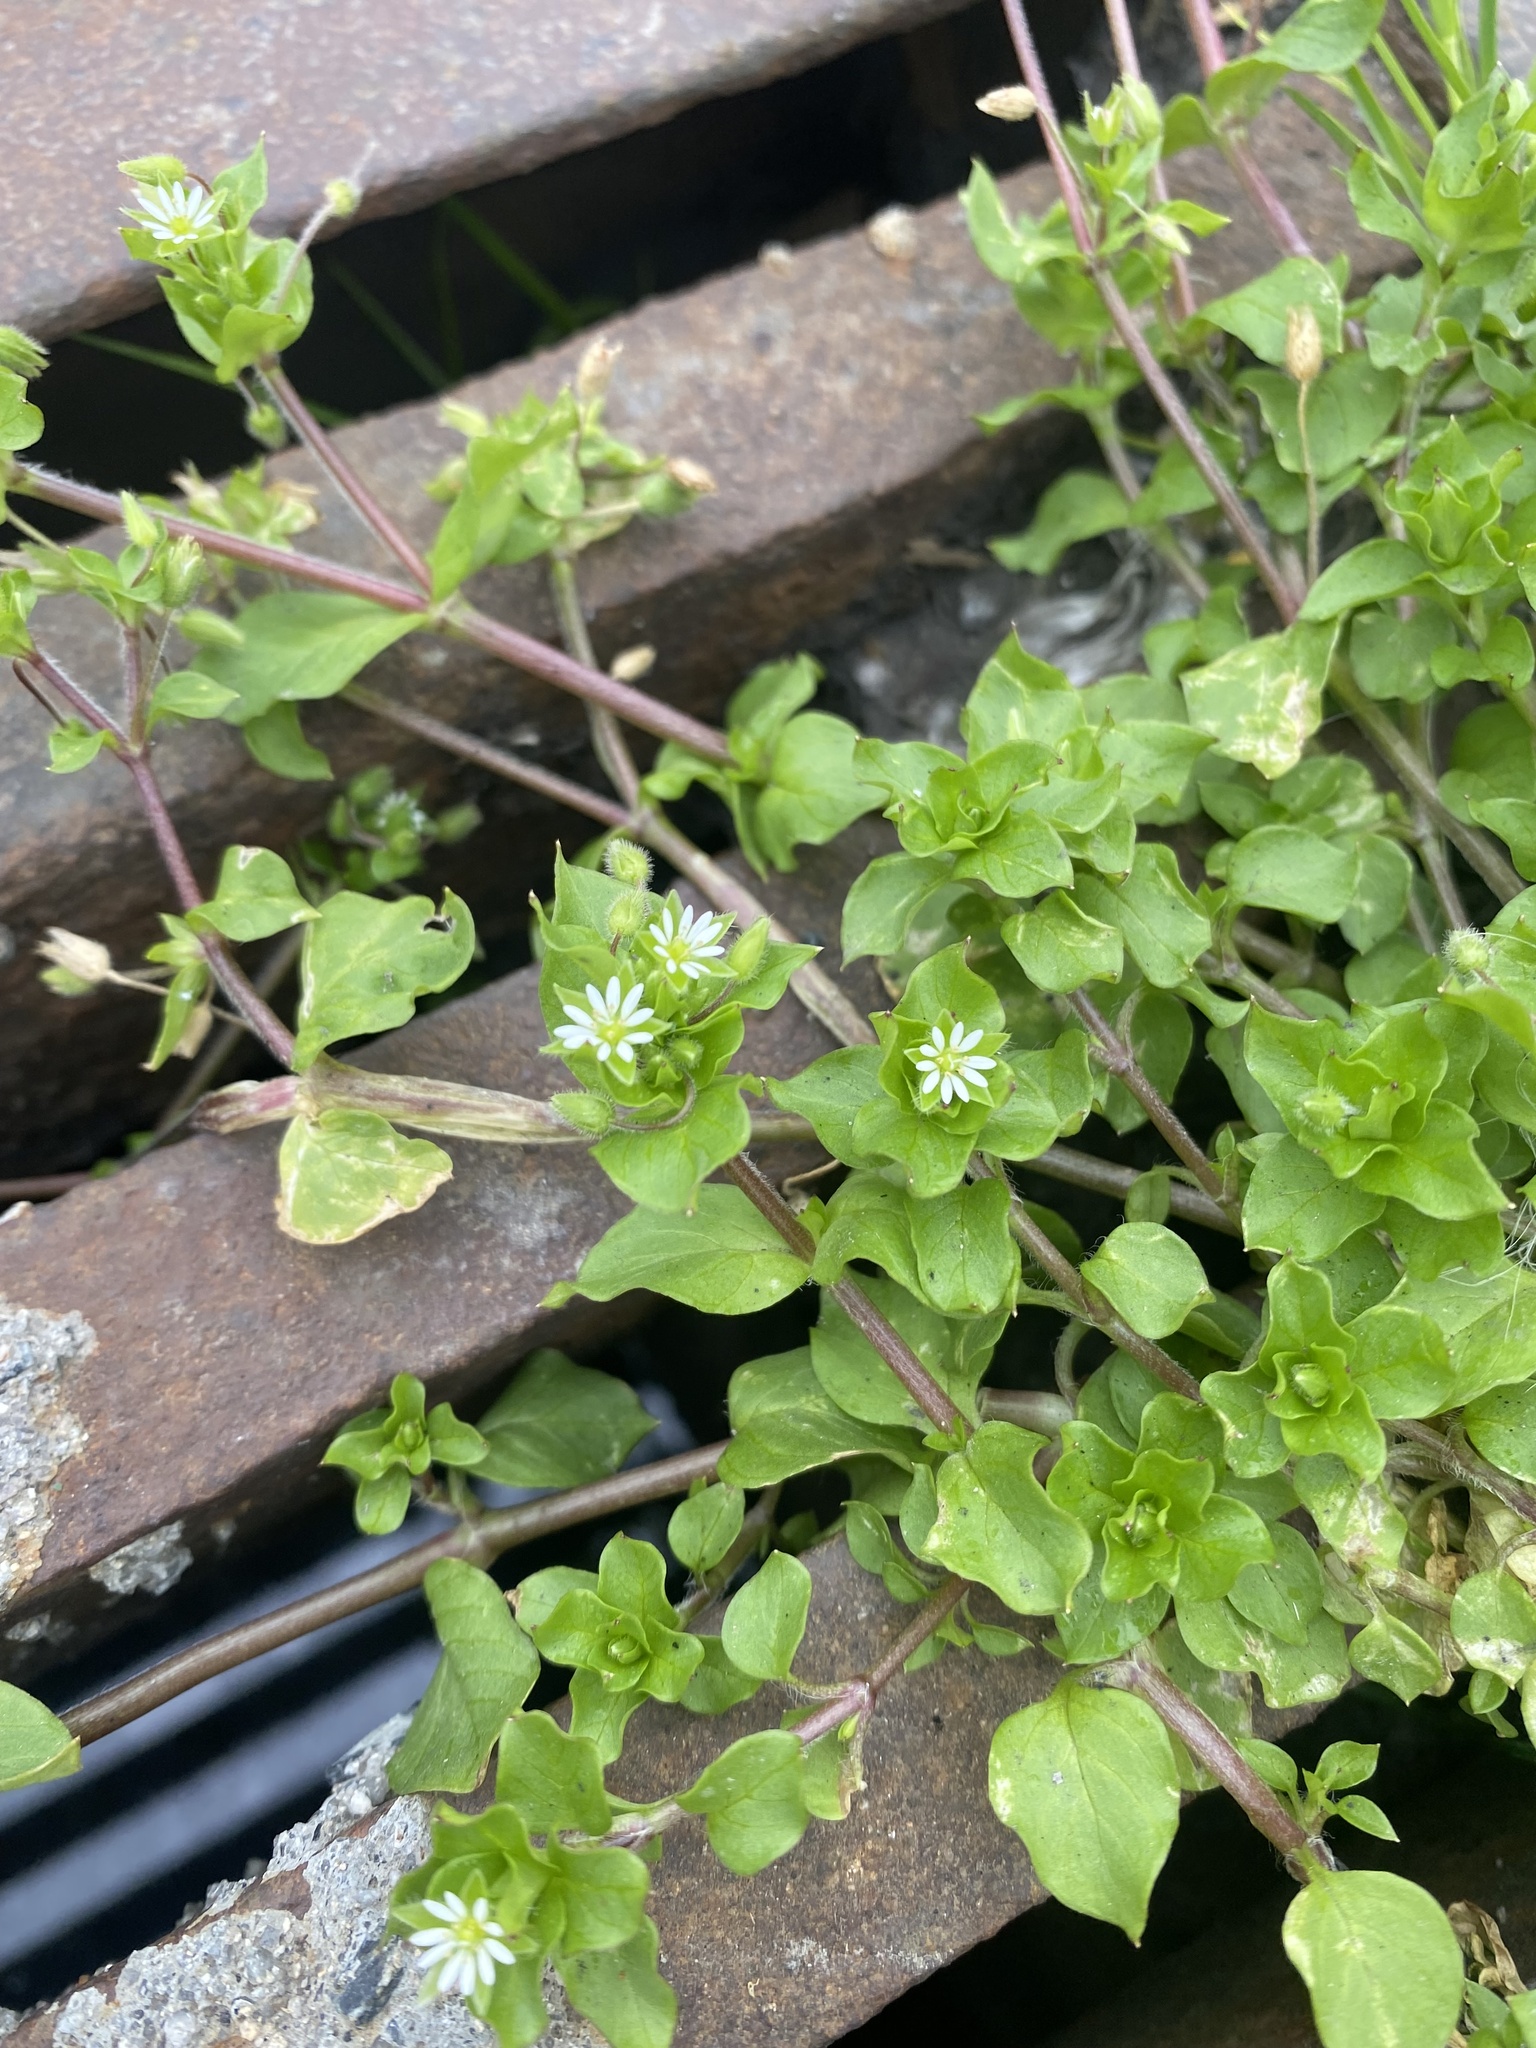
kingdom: Plantae
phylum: Tracheophyta
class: Magnoliopsida
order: Caryophyllales
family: Caryophyllaceae
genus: Stellaria
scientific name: Stellaria media
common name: Common chickweed
